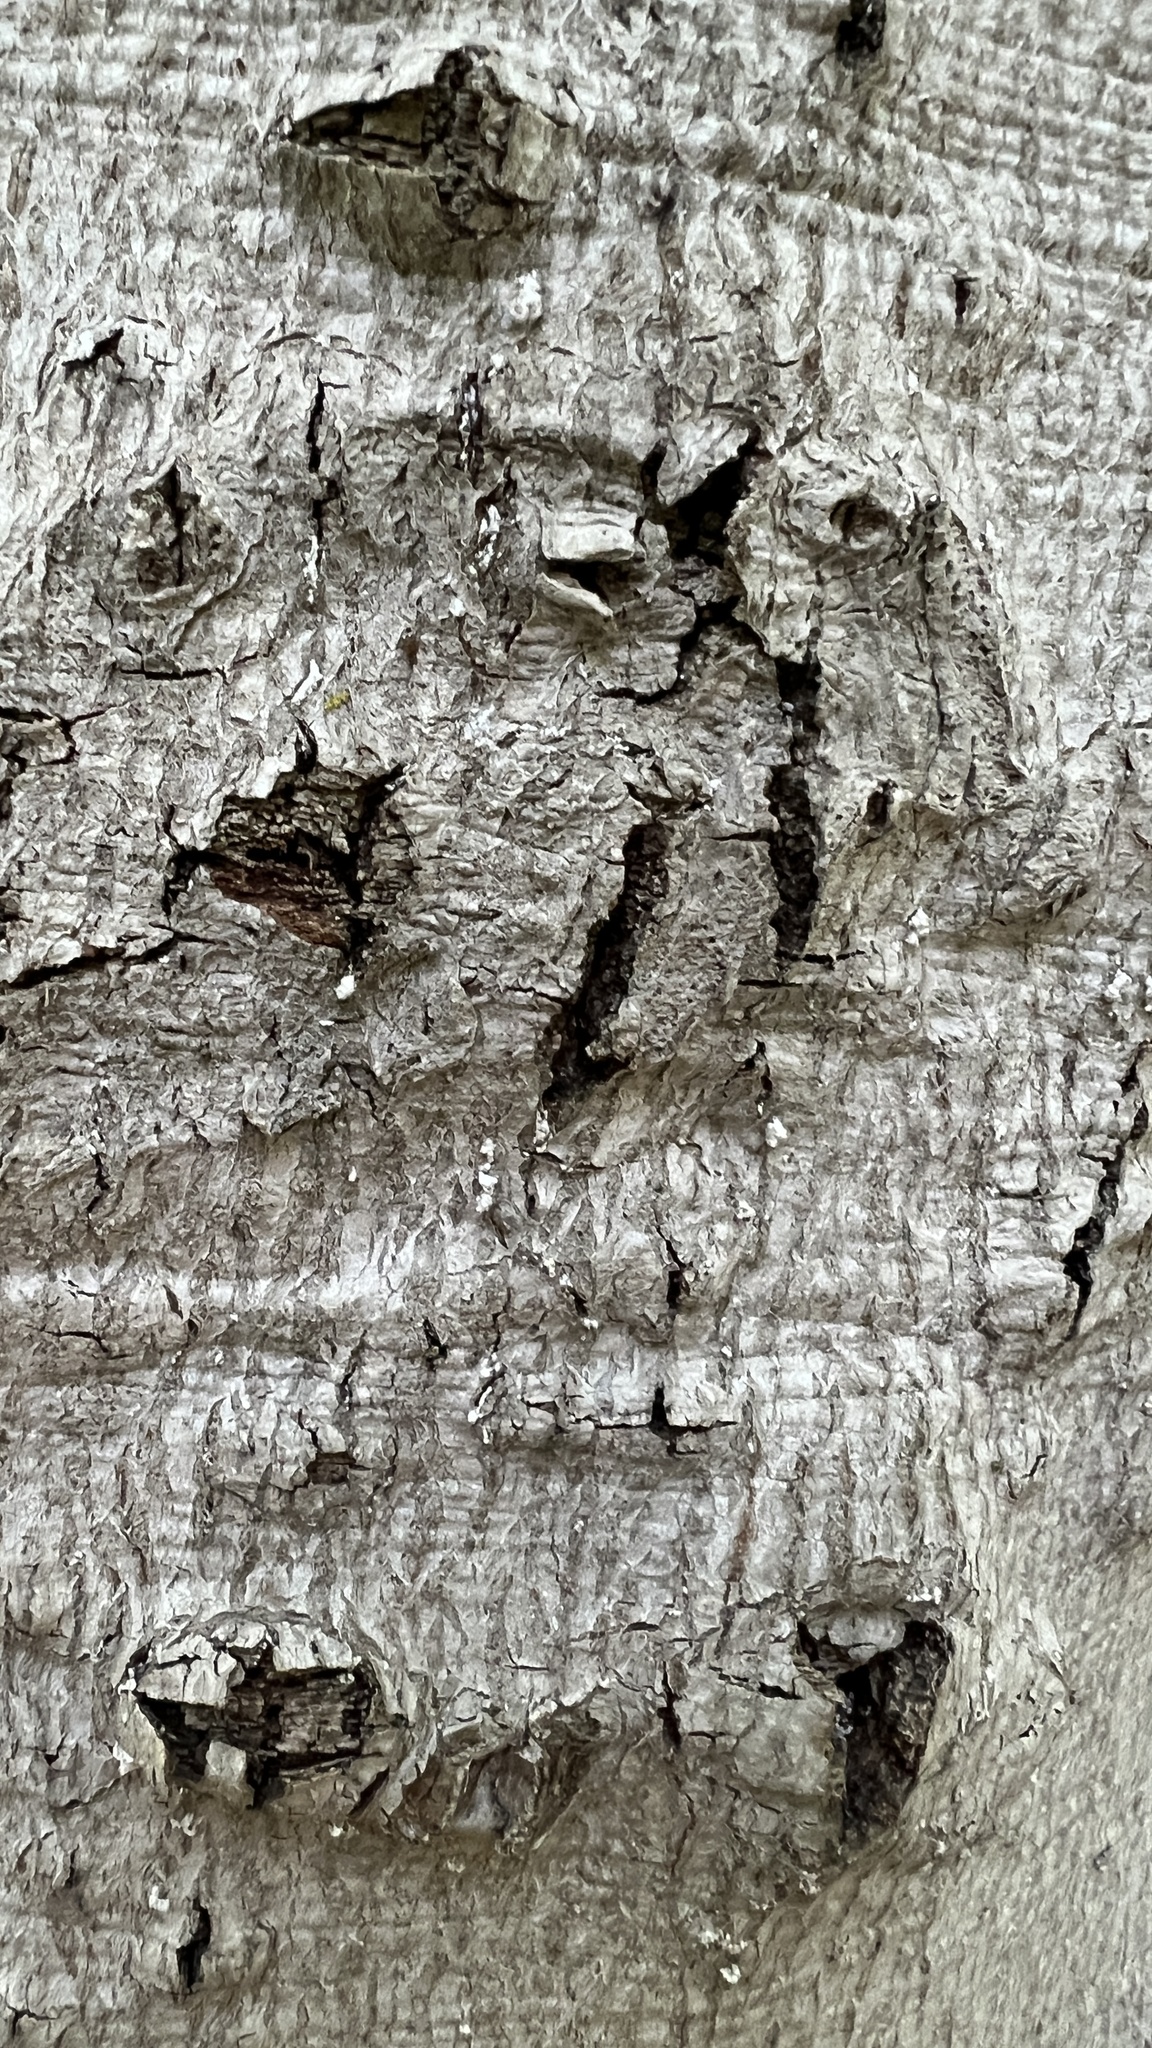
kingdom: Animalia
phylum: Arthropoda
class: Insecta
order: Hemiptera
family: Eriococcidae
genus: Cryptococcus
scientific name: Cryptococcus fagisuga
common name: Beech scale
